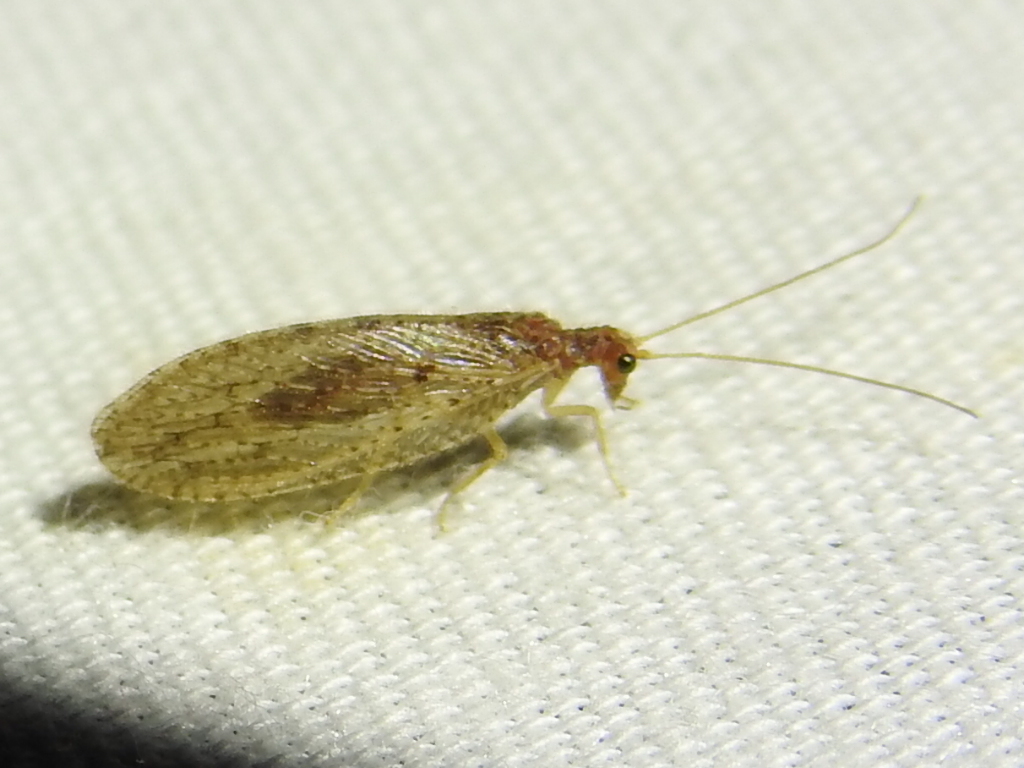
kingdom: Animalia
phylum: Arthropoda
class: Insecta
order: Neuroptera
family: Hemerobiidae
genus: Micromus
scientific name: Micromus subanticus
